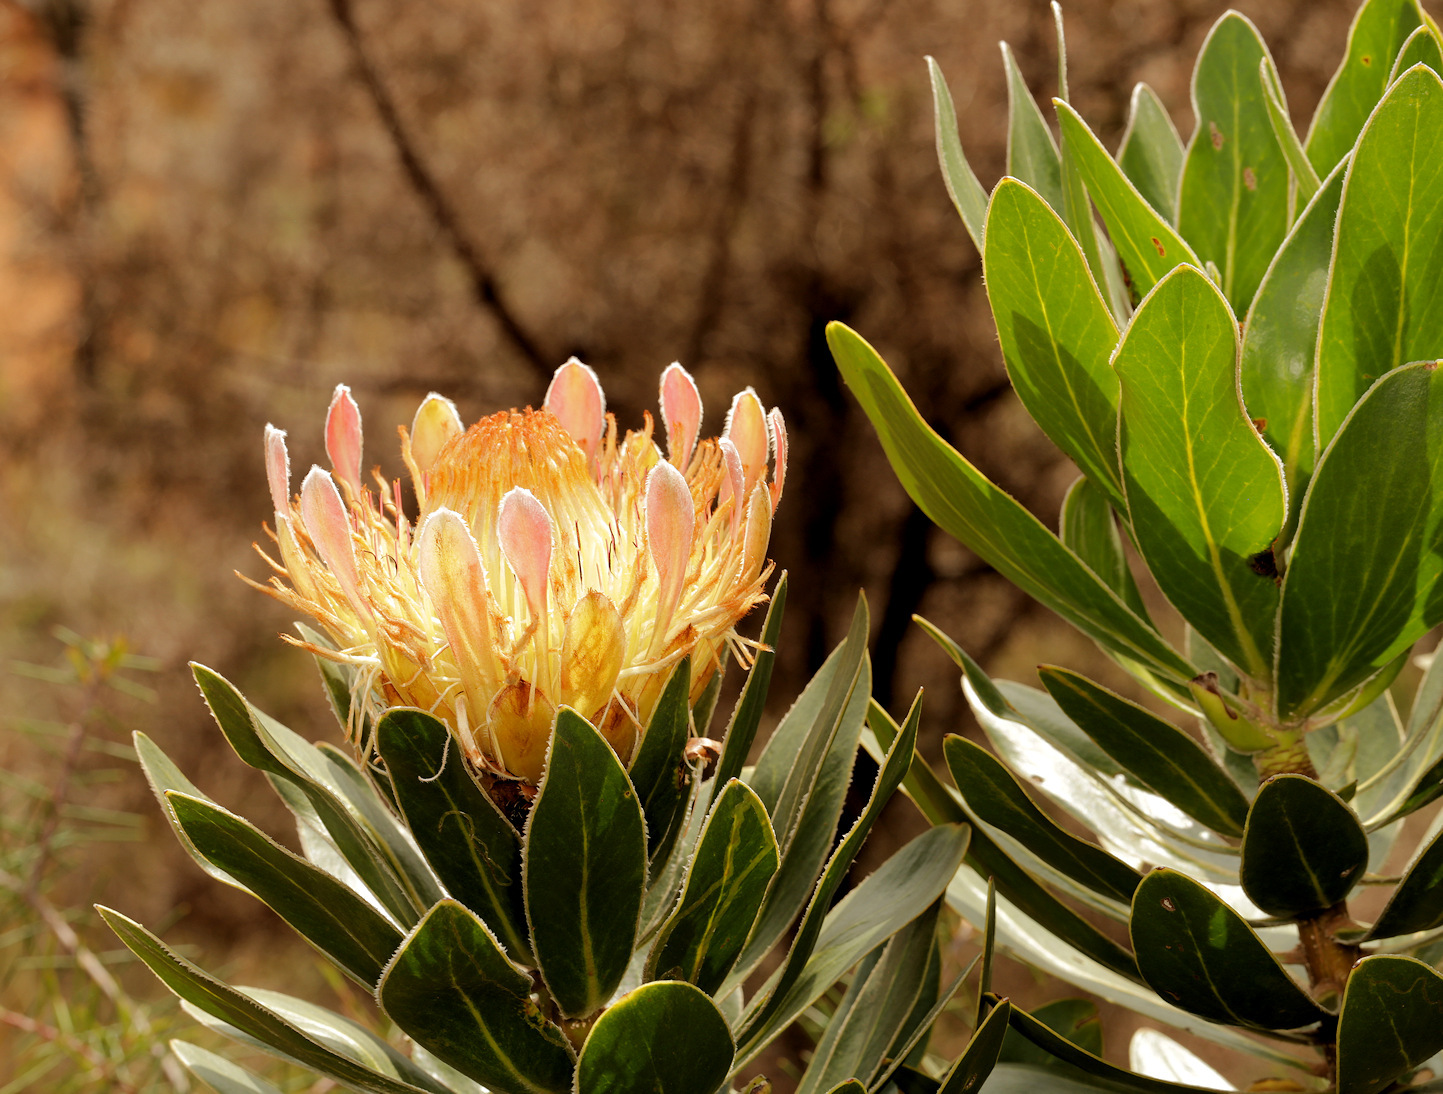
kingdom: Plantae
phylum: Tracheophyta
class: Magnoliopsida
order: Proteales
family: Proteaceae
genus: Protea
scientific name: Protea roupelliae
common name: Silver sugarbush
